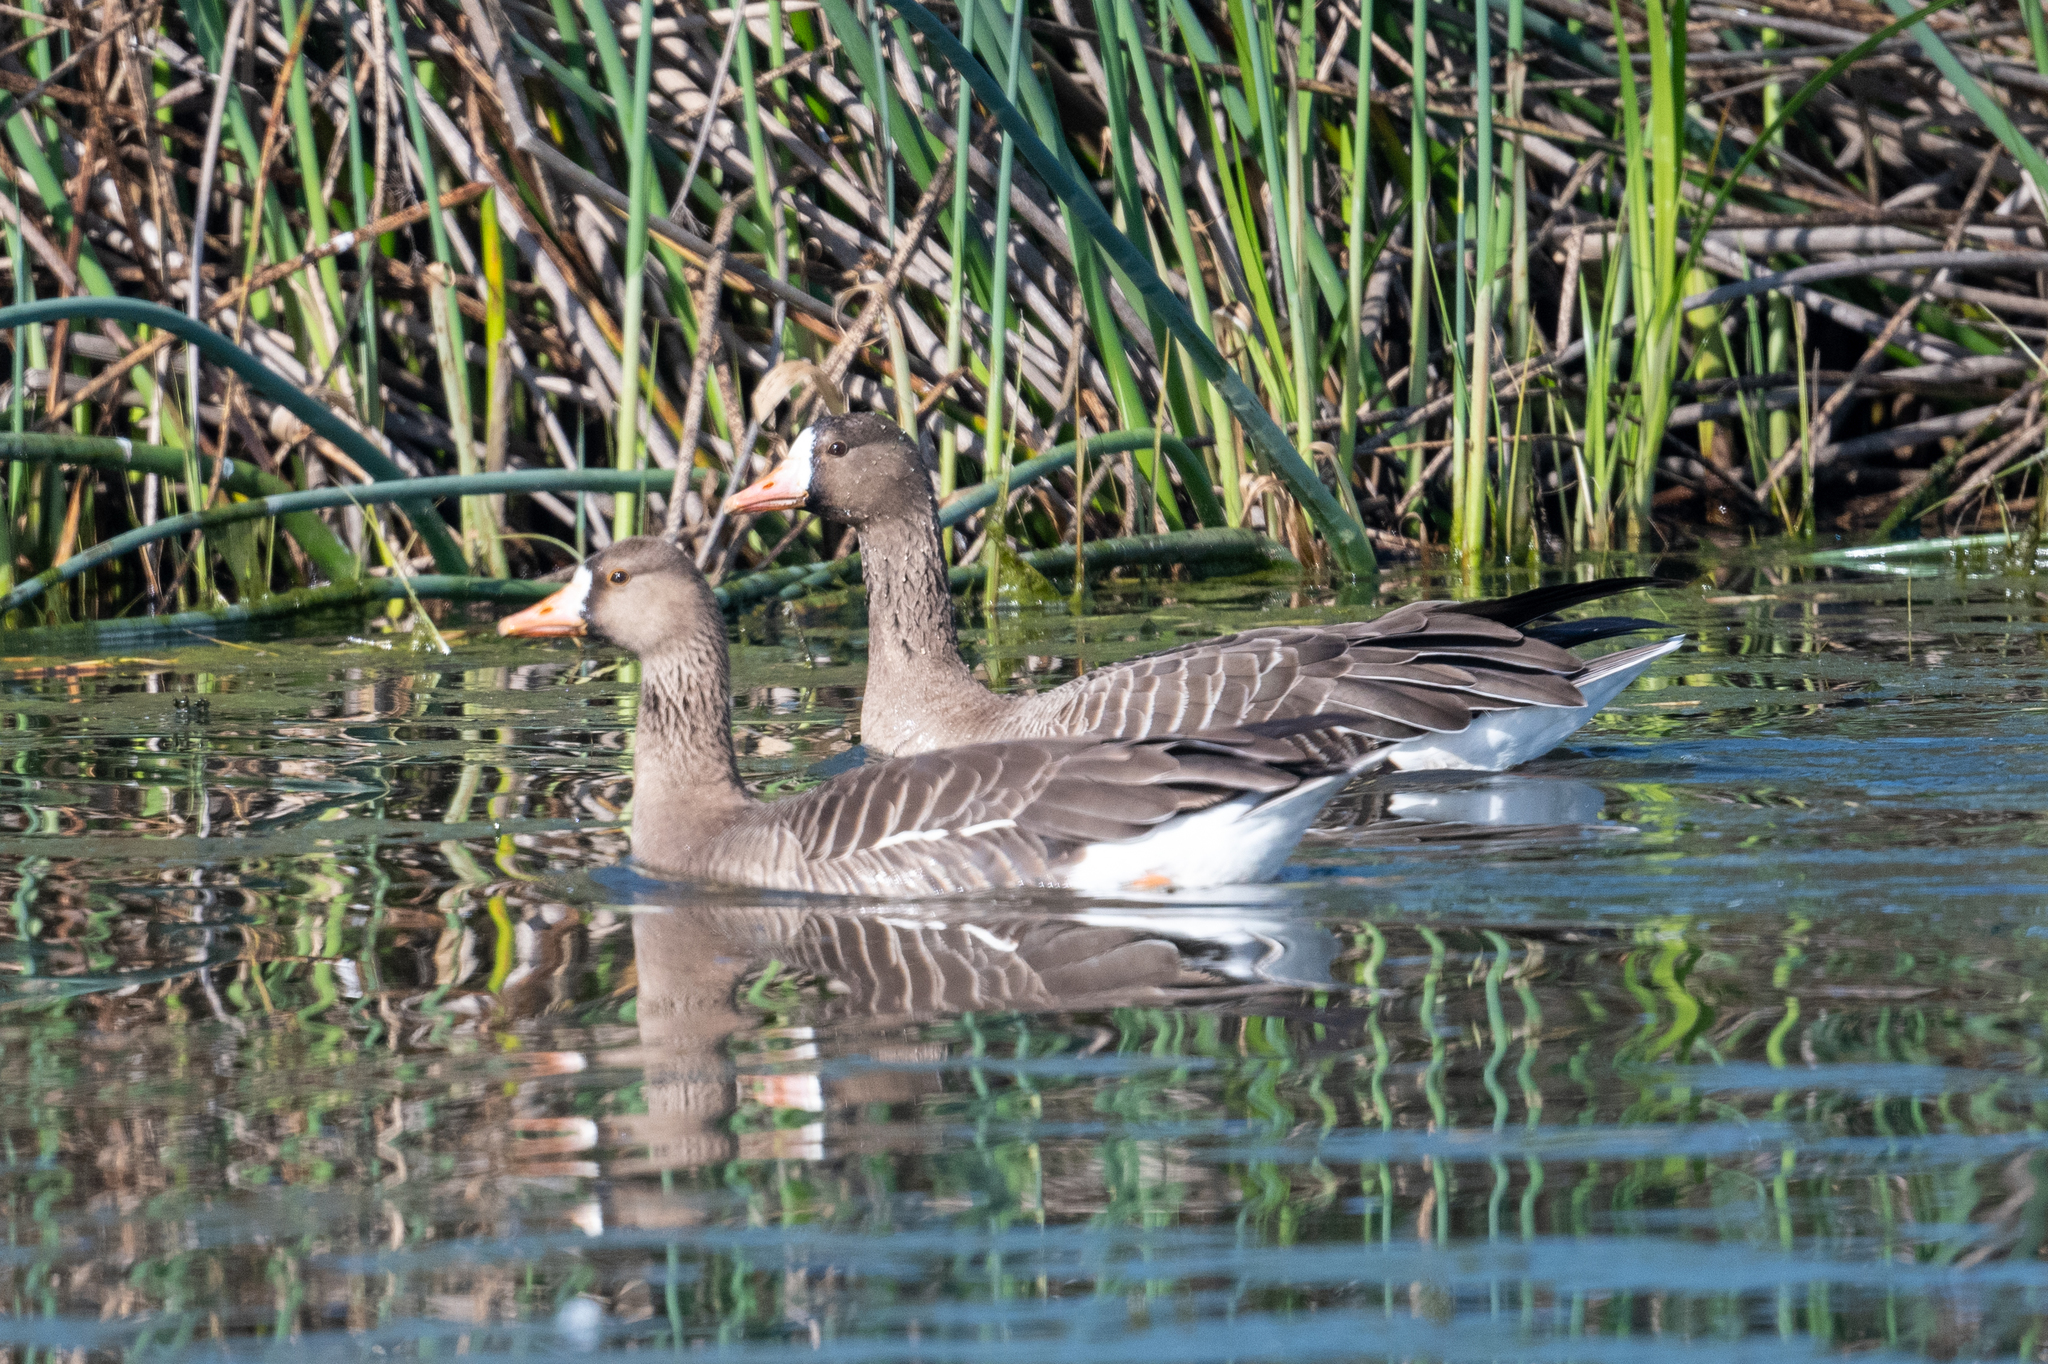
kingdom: Animalia
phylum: Chordata
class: Aves
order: Anseriformes
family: Anatidae
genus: Anser
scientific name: Anser albifrons
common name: Greater white-fronted goose
